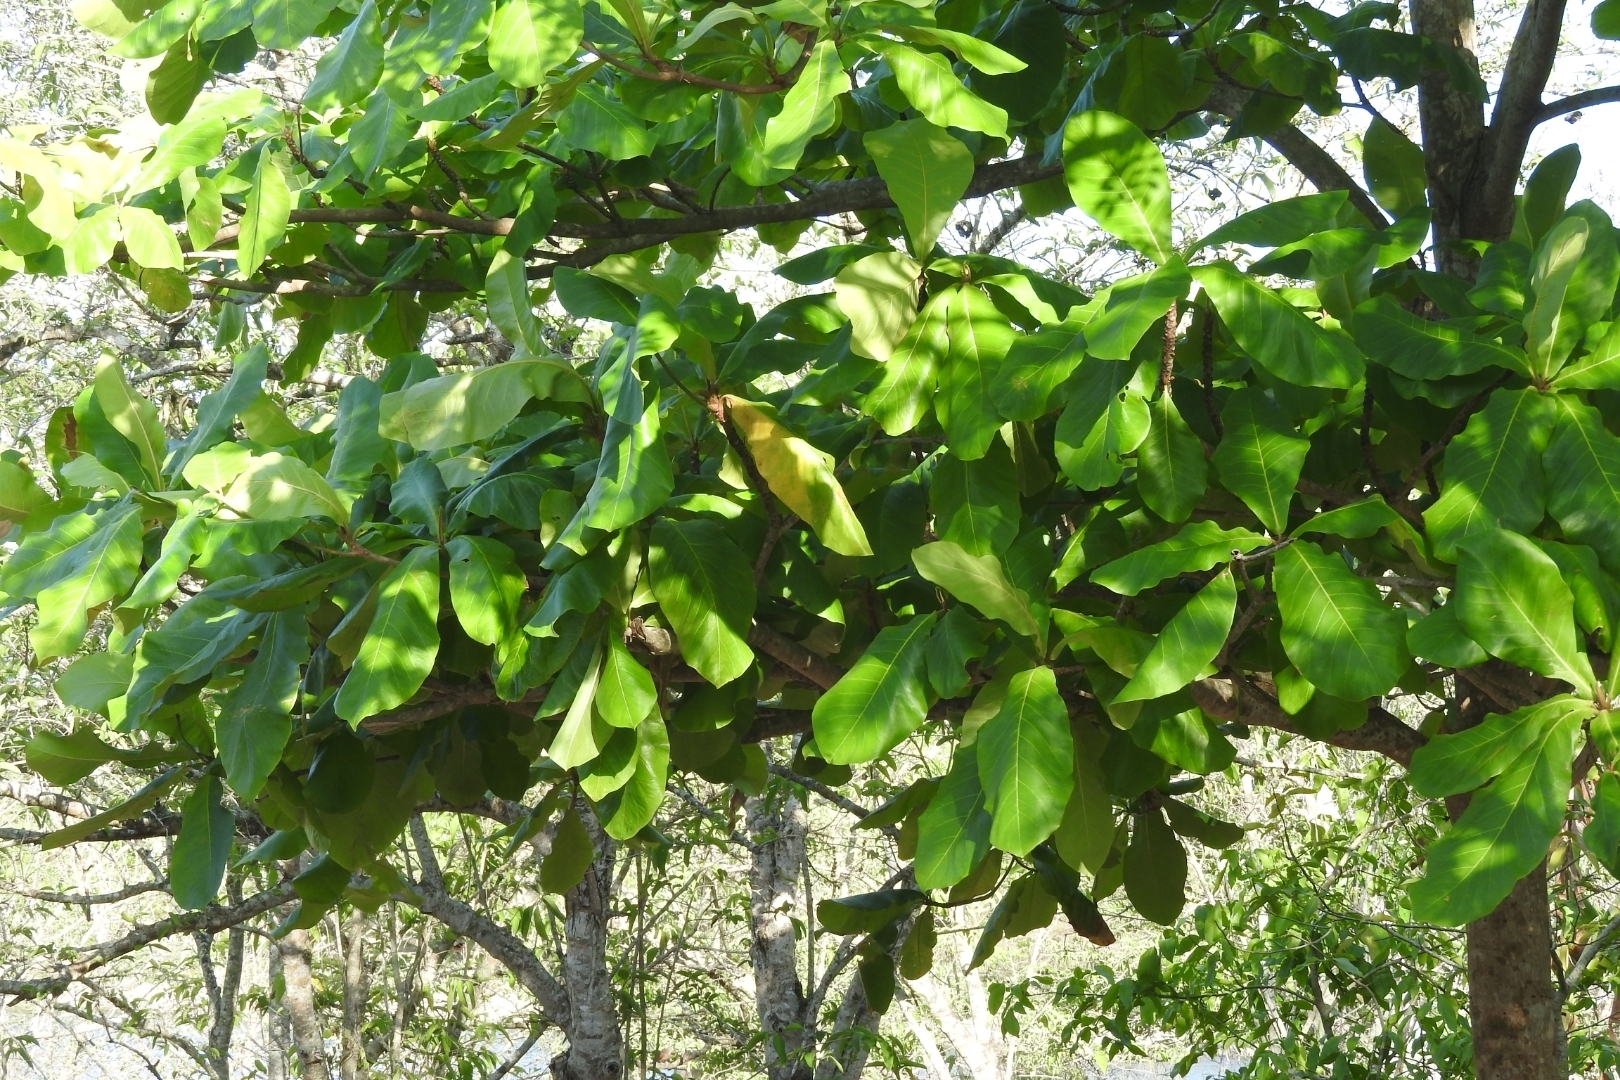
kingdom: Plantae
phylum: Tracheophyta
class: Magnoliopsida
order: Myrtales
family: Combretaceae
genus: Terminalia
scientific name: Terminalia catappa
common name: Tropical almond
